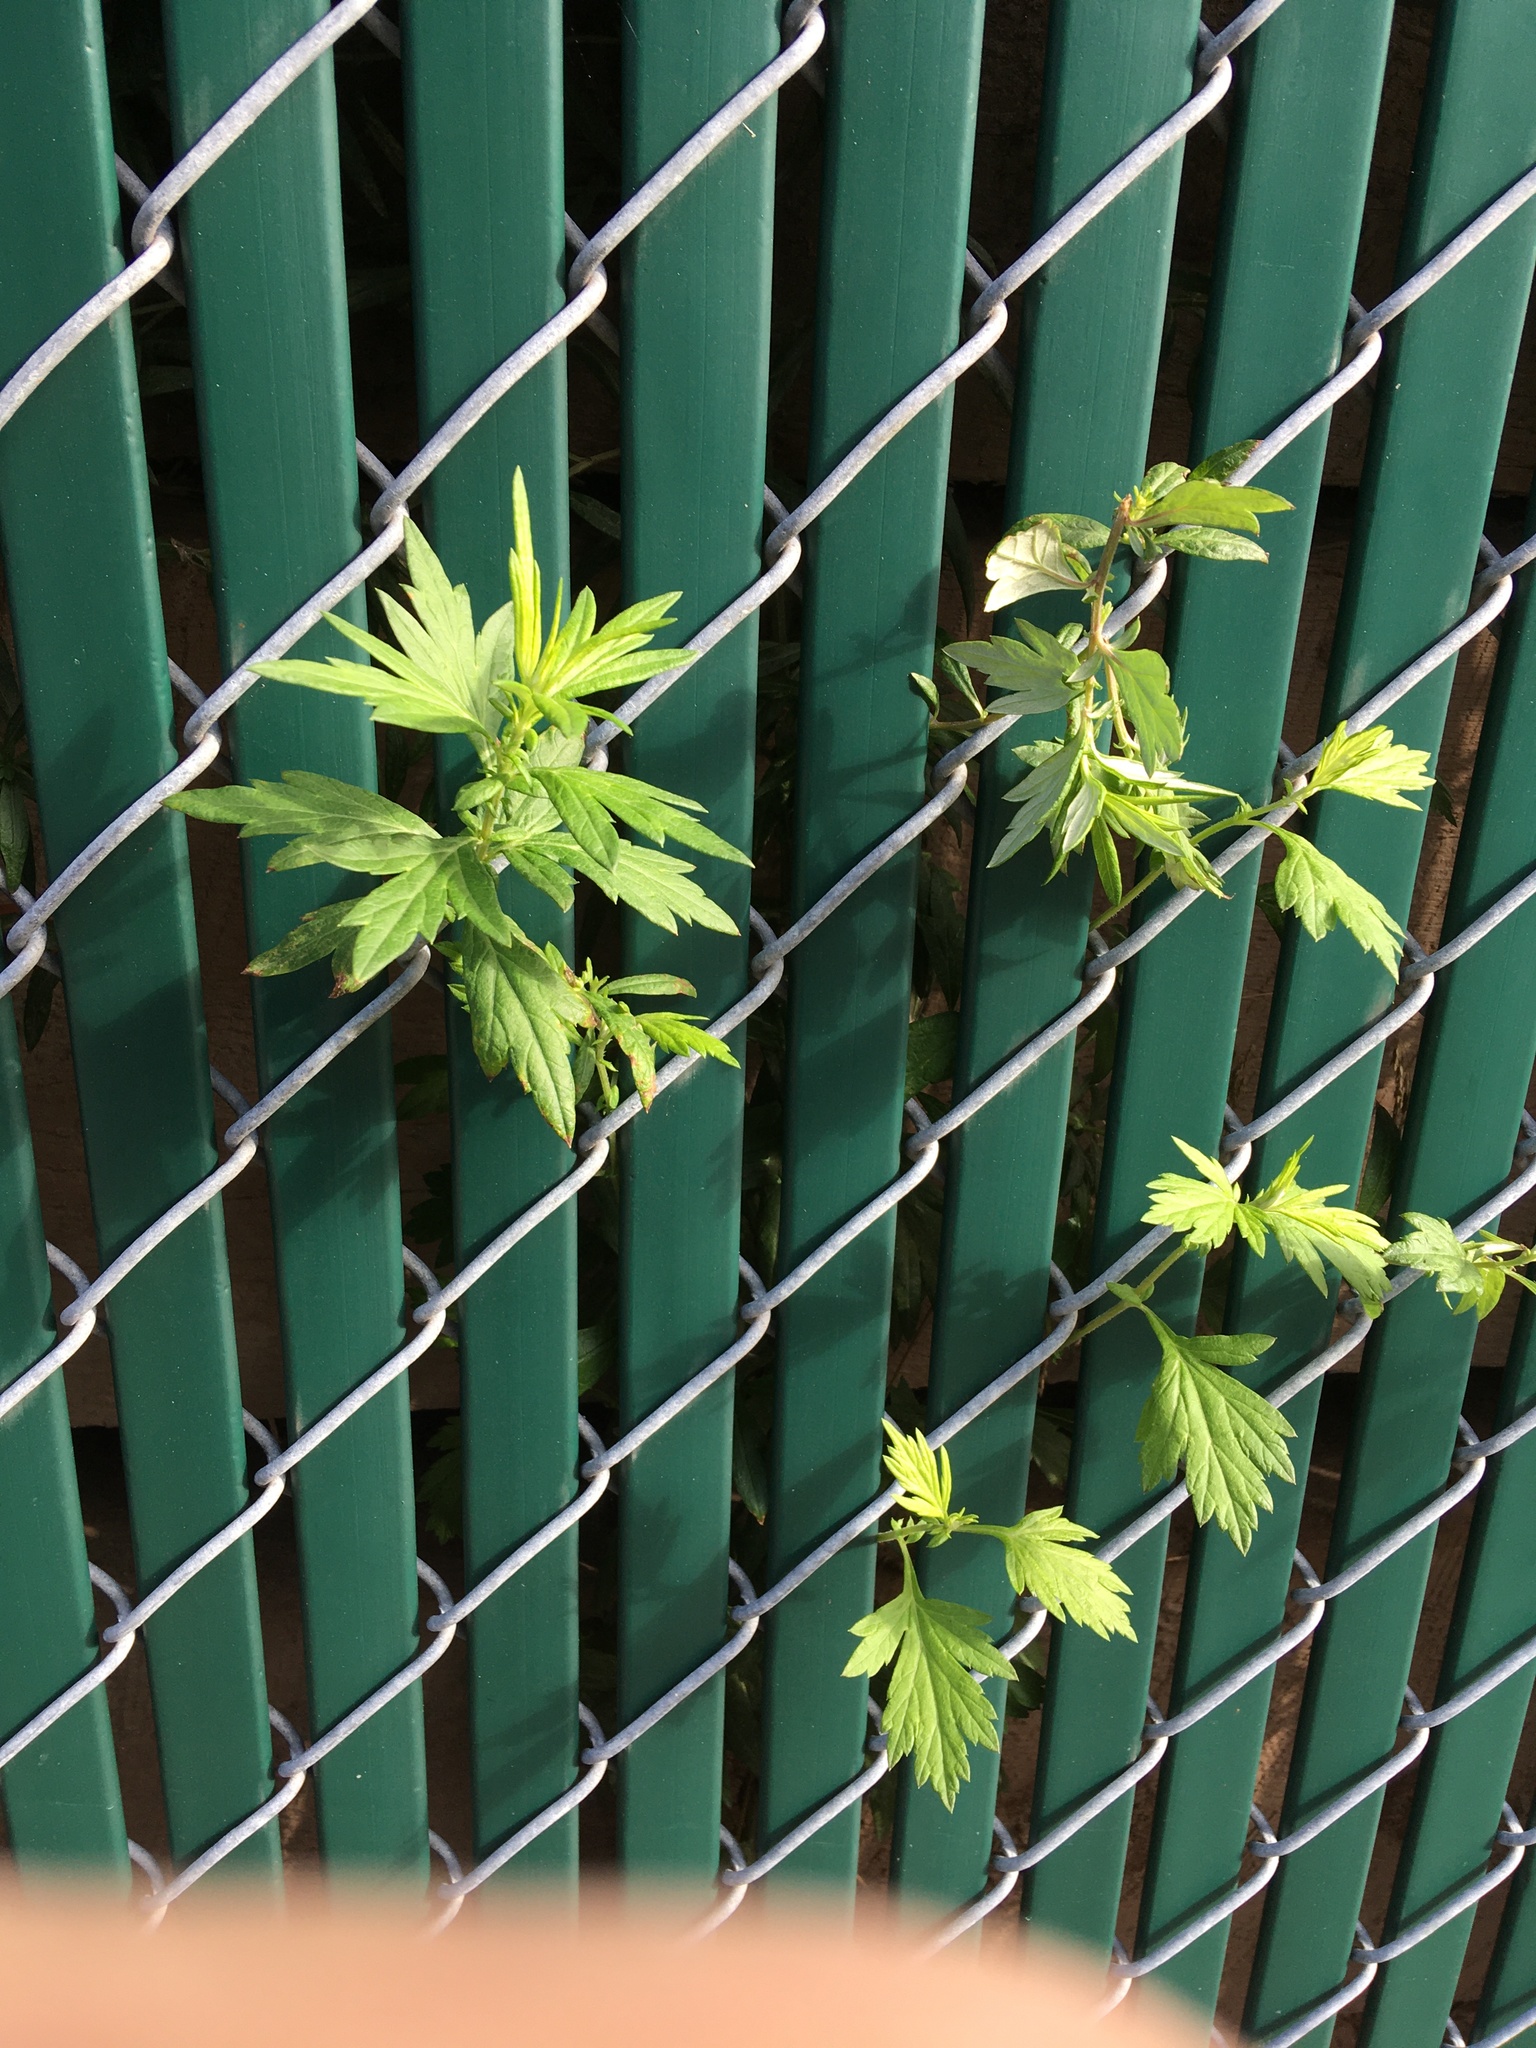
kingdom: Plantae
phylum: Tracheophyta
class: Magnoliopsida
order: Asterales
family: Asteraceae
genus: Artemisia
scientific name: Artemisia vulgaris
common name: Mugwort
